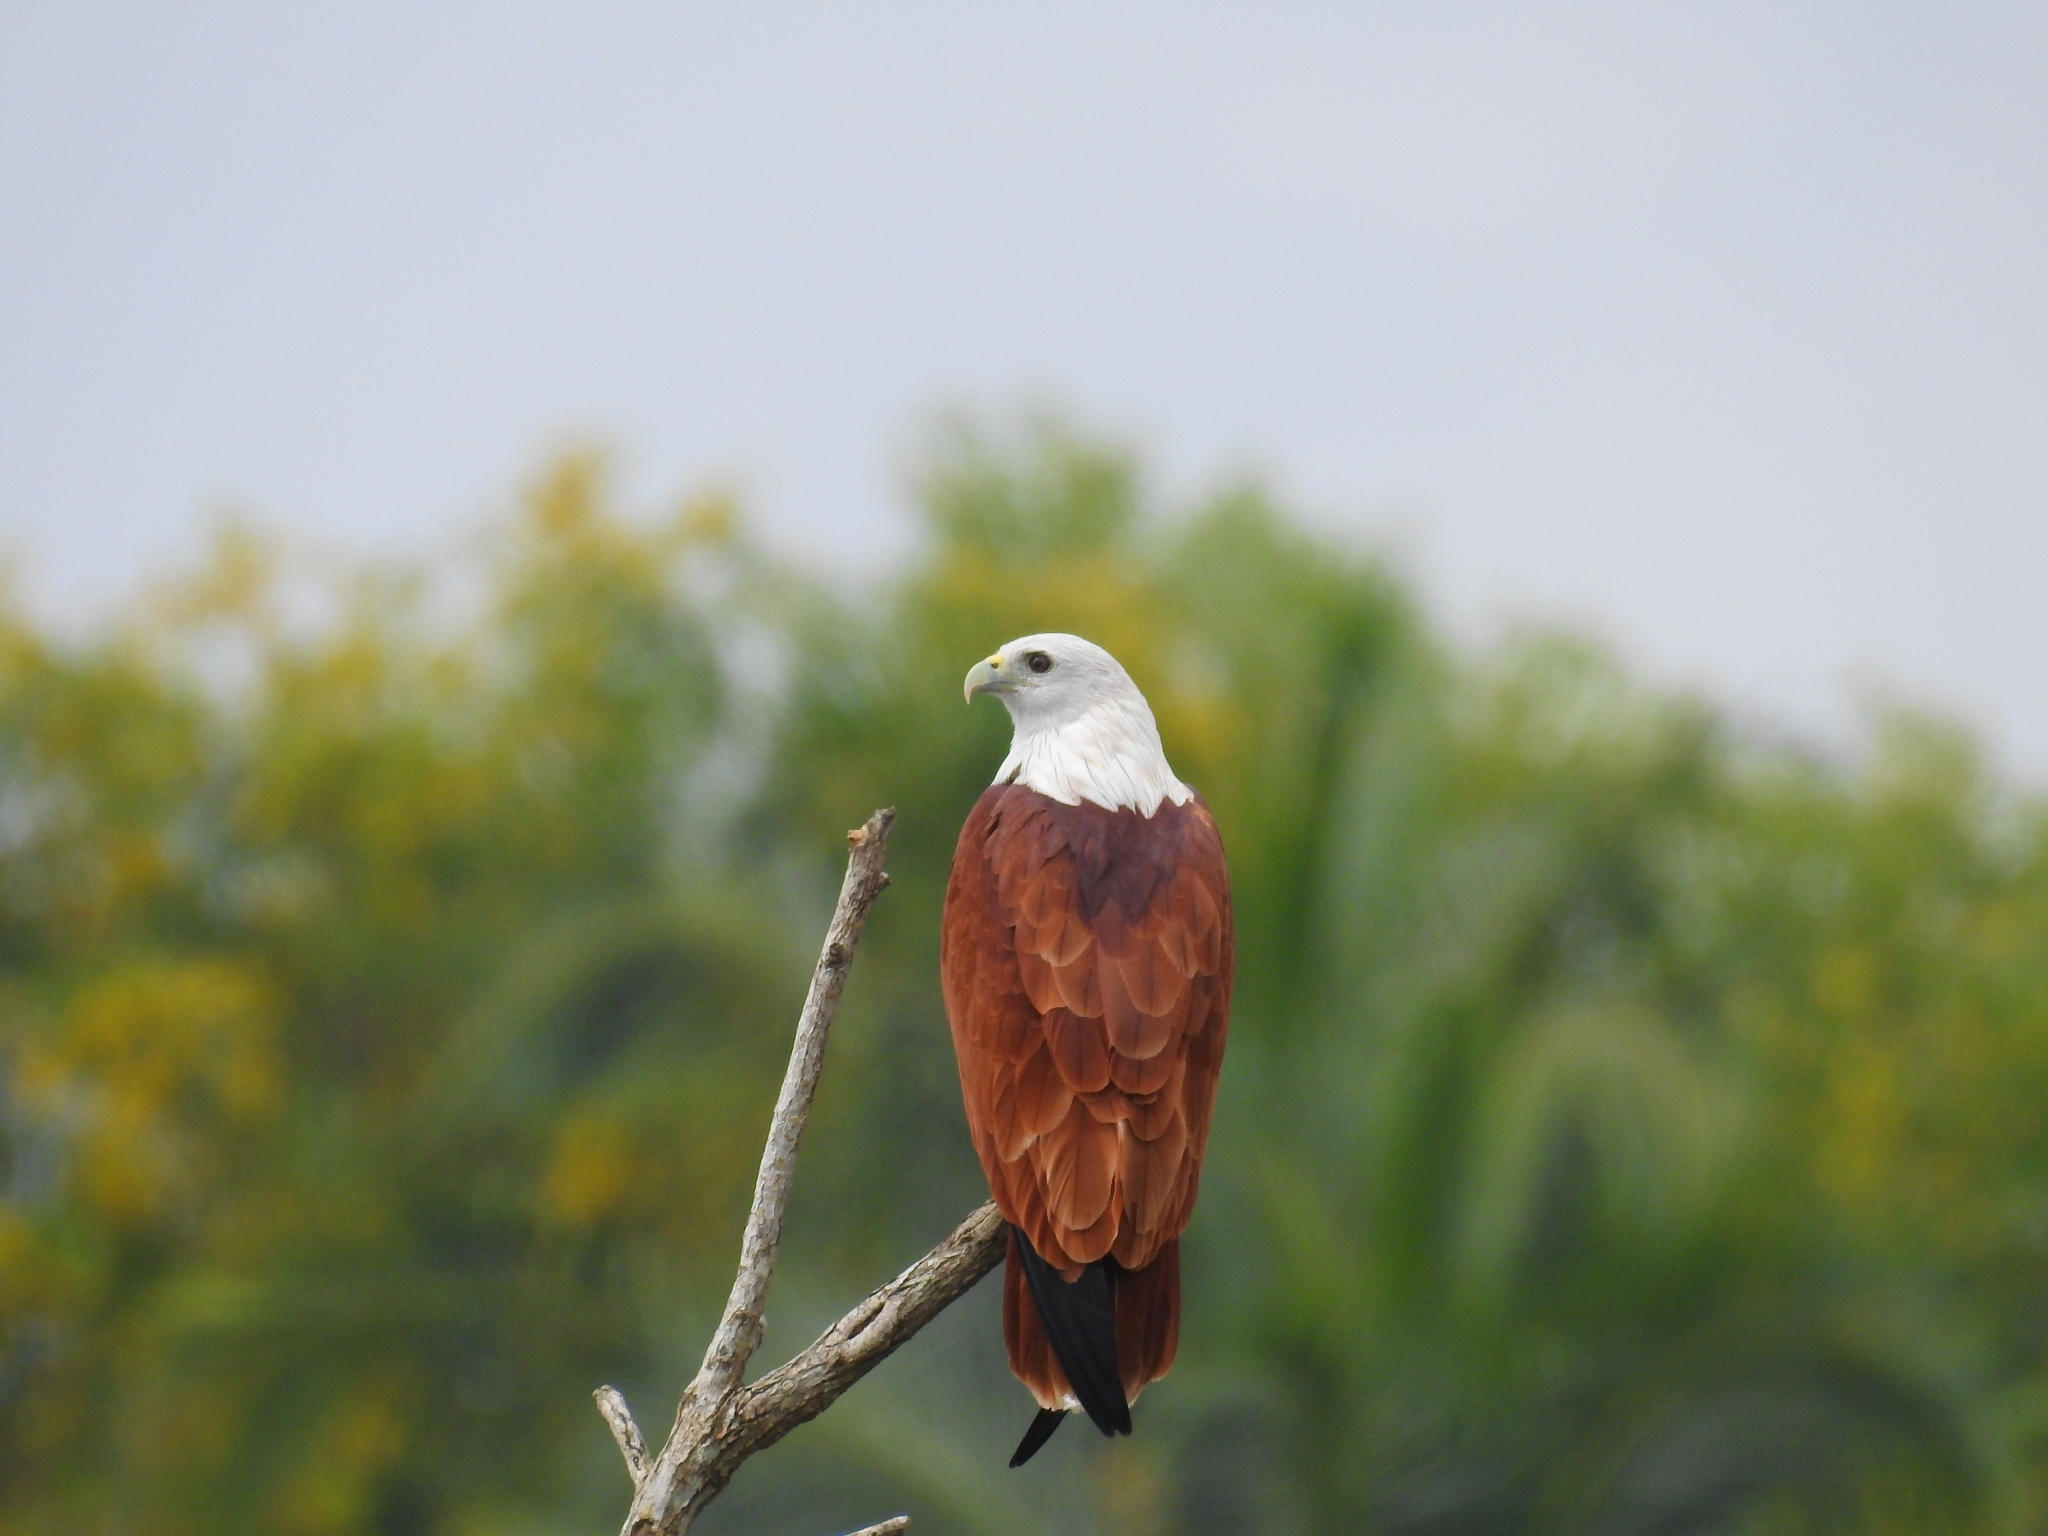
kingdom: Animalia
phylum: Chordata
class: Aves
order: Accipitriformes
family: Accipitridae
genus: Haliastur
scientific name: Haliastur indus
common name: Brahminy kite
